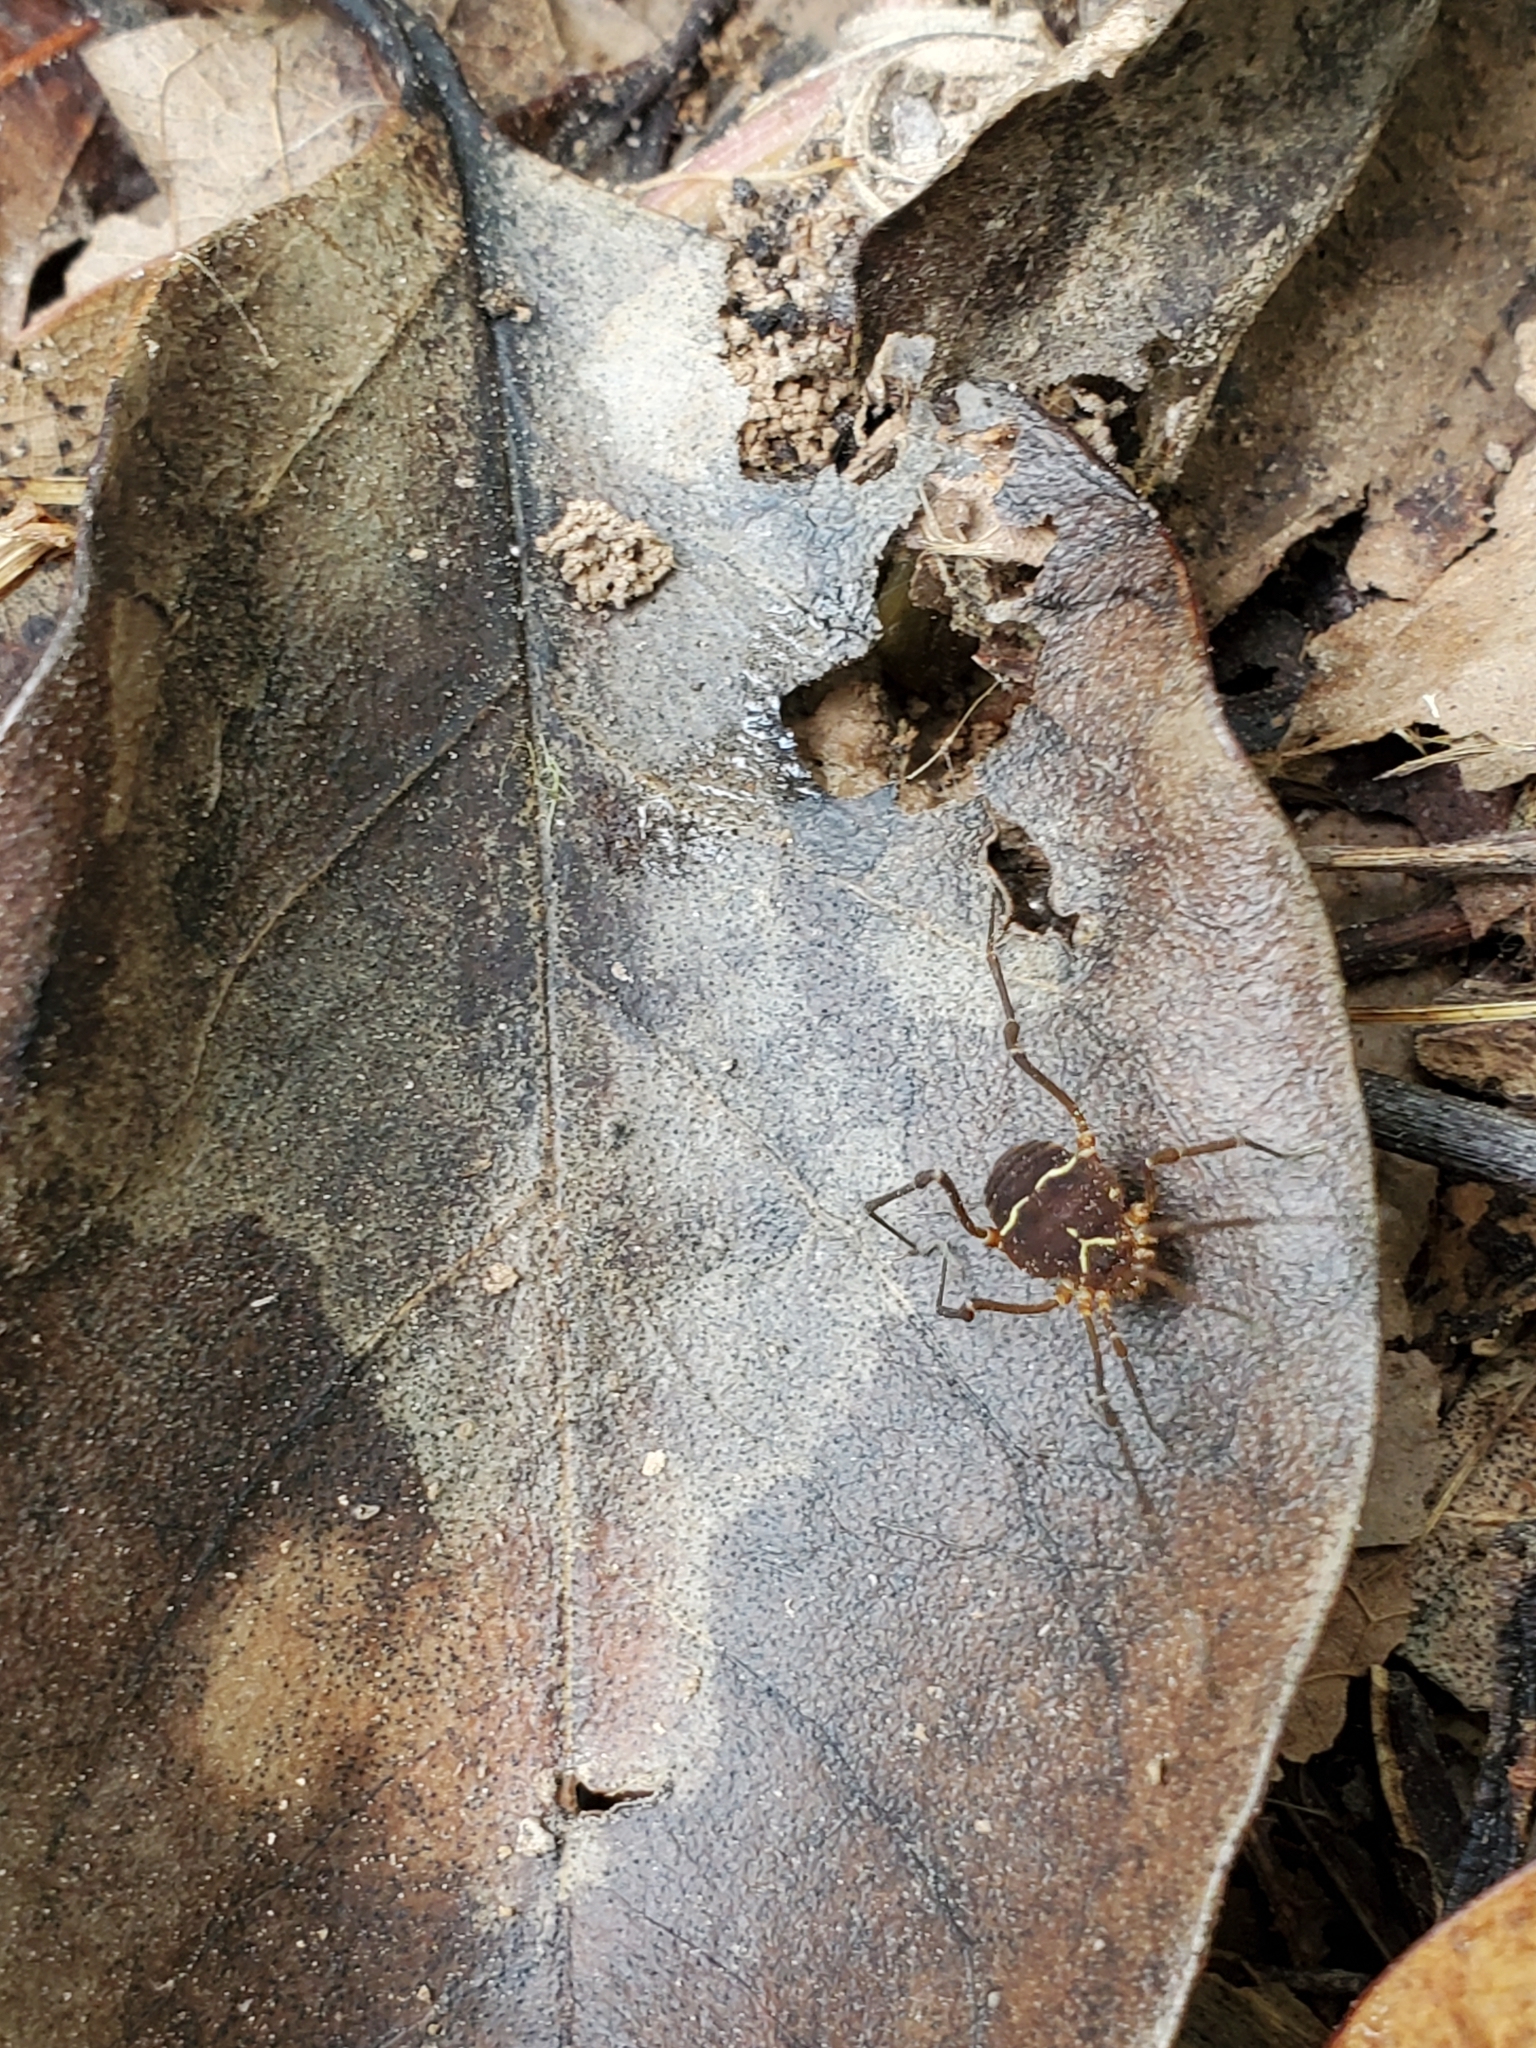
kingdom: Animalia
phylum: Arthropoda
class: Arachnida
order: Opiliones
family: Cosmetidae
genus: Libitioides
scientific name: Libitioides sayi
